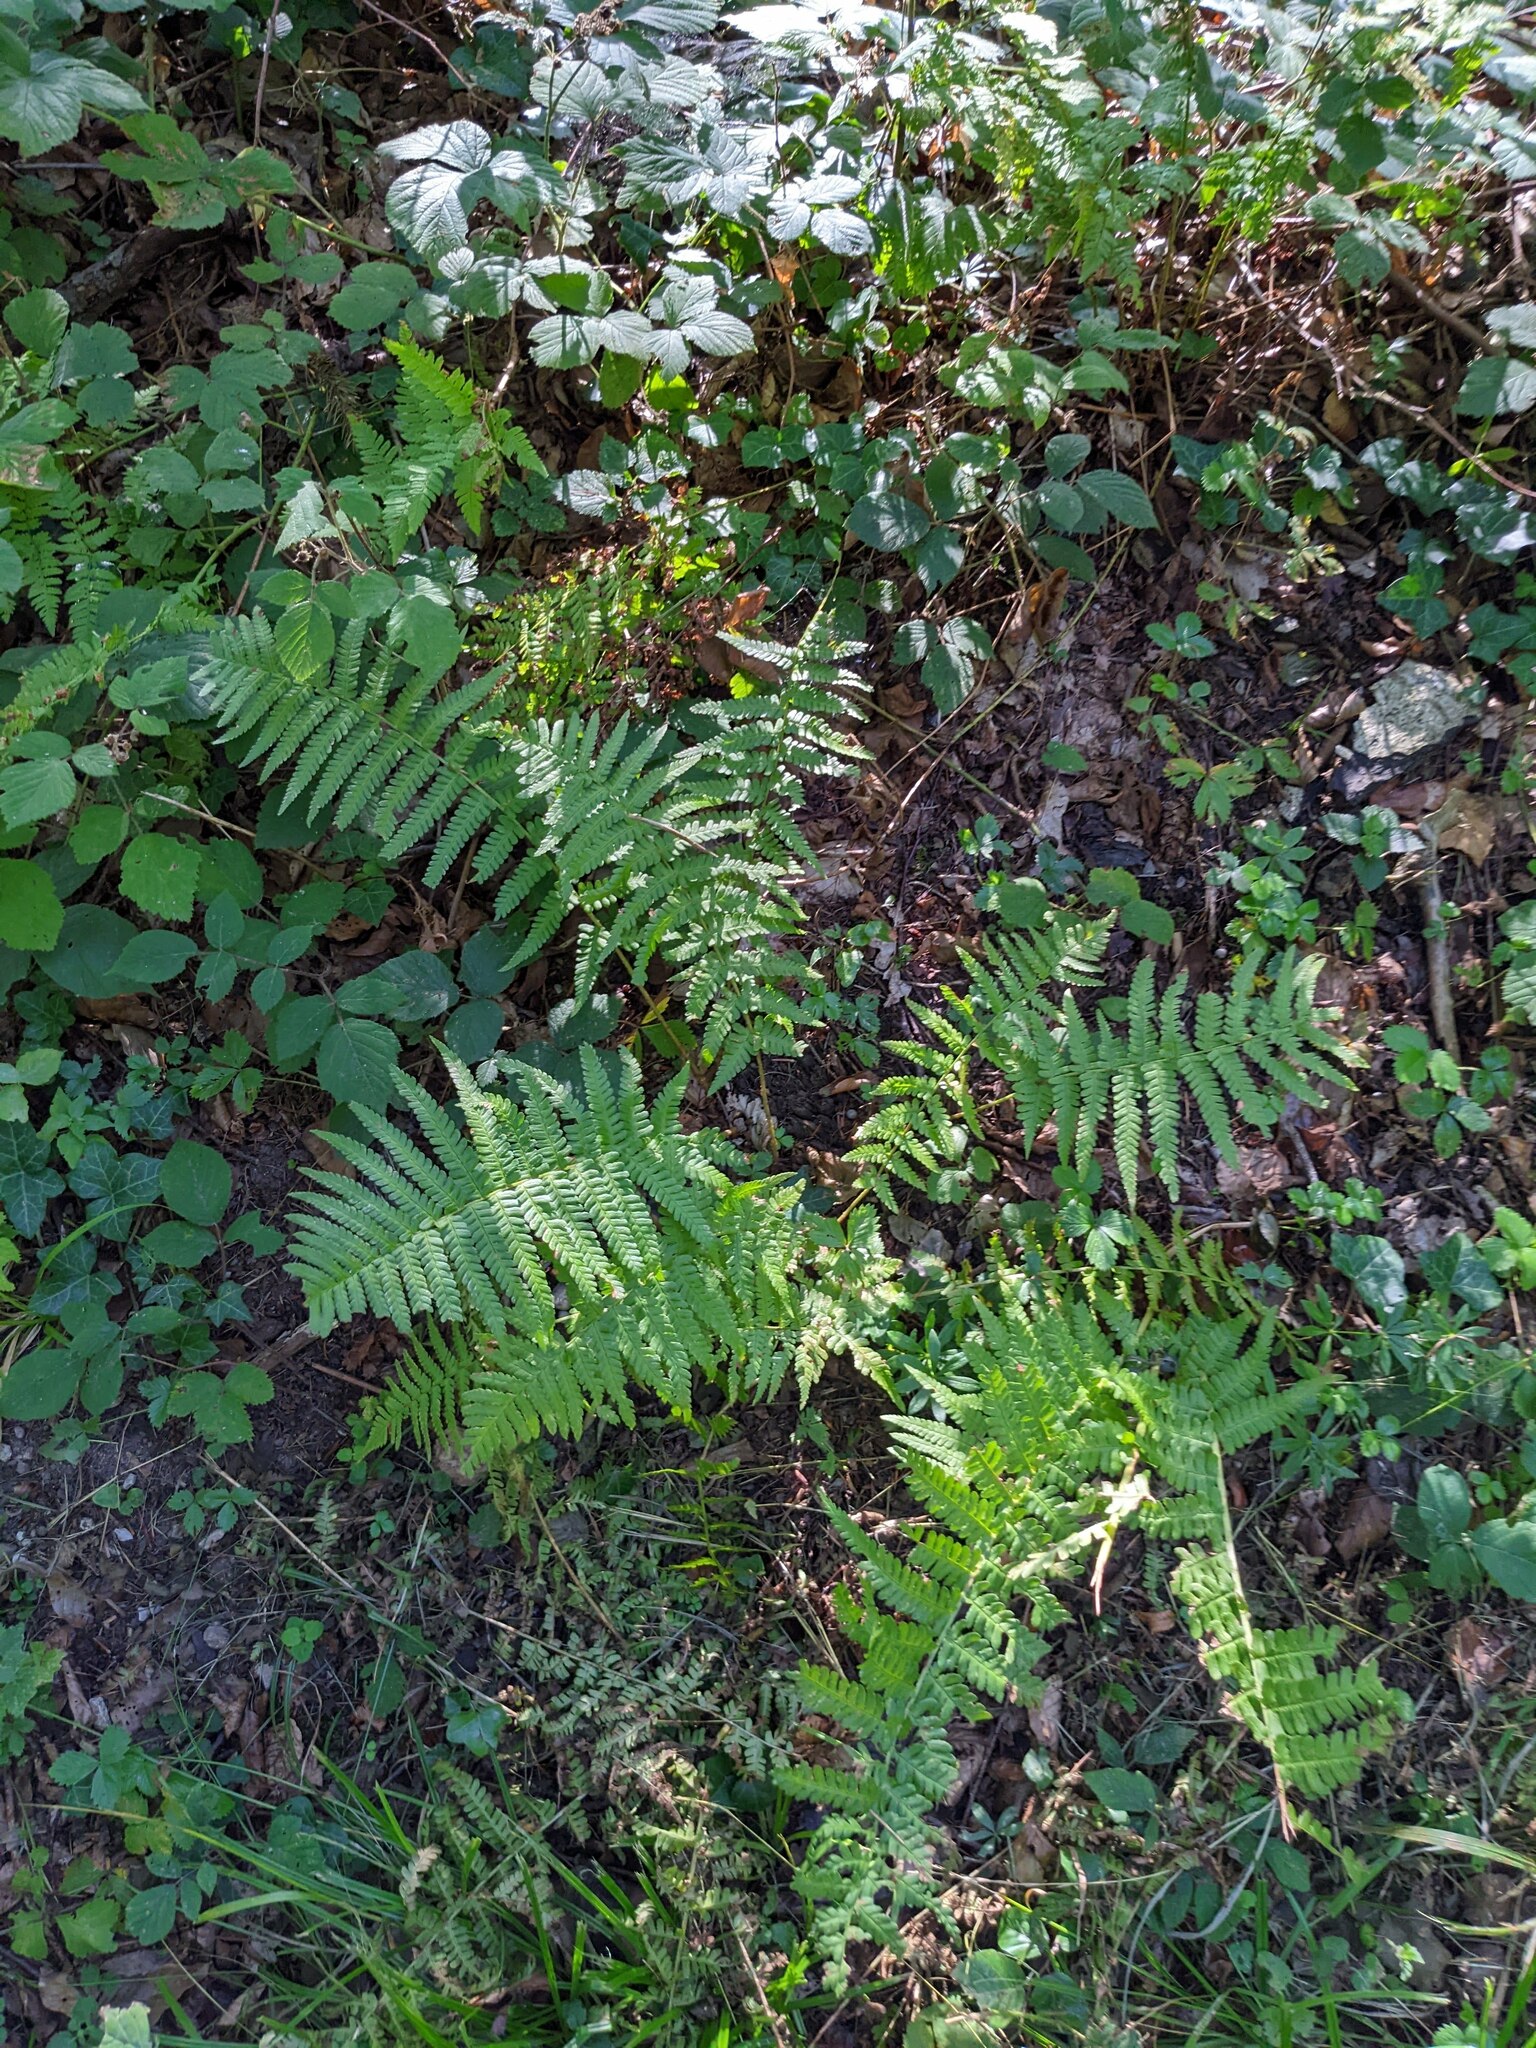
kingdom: Plantae
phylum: Tracheophyta
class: Polypodiopsida
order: Polypodiales
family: Dryopteridaceae
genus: Dryopteris
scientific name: Dryopteris filix-mas
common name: Male fern
